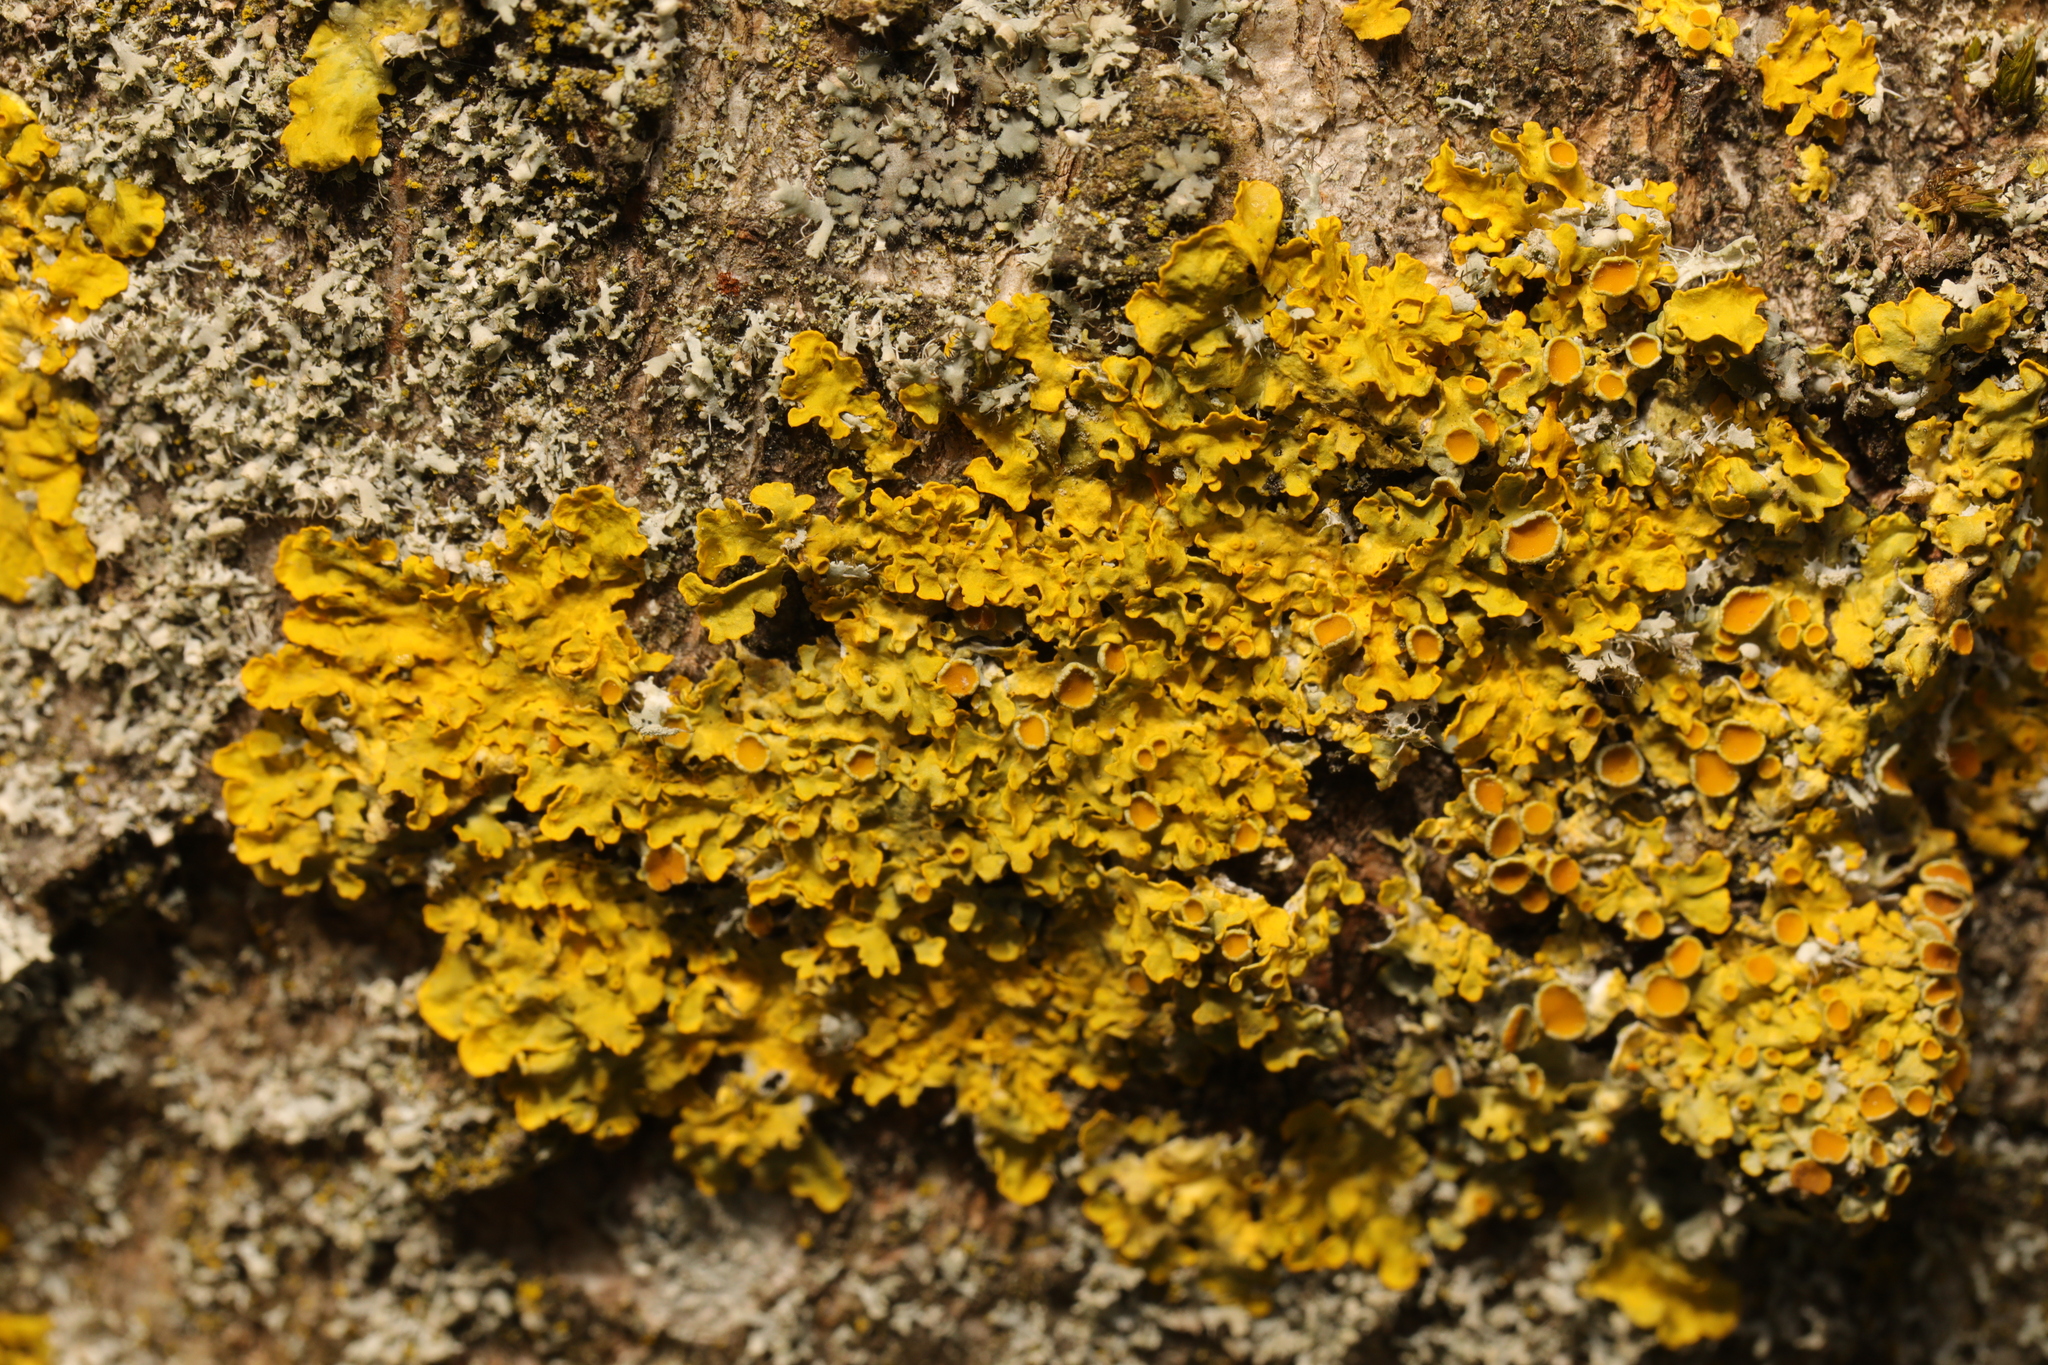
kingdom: Fungi
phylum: Ascomycota
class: Lecanoromycetes
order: Teloschistales
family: Teloschistaceae
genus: Xanthoria
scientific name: Xanthoria parietina
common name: Common orange lichen
